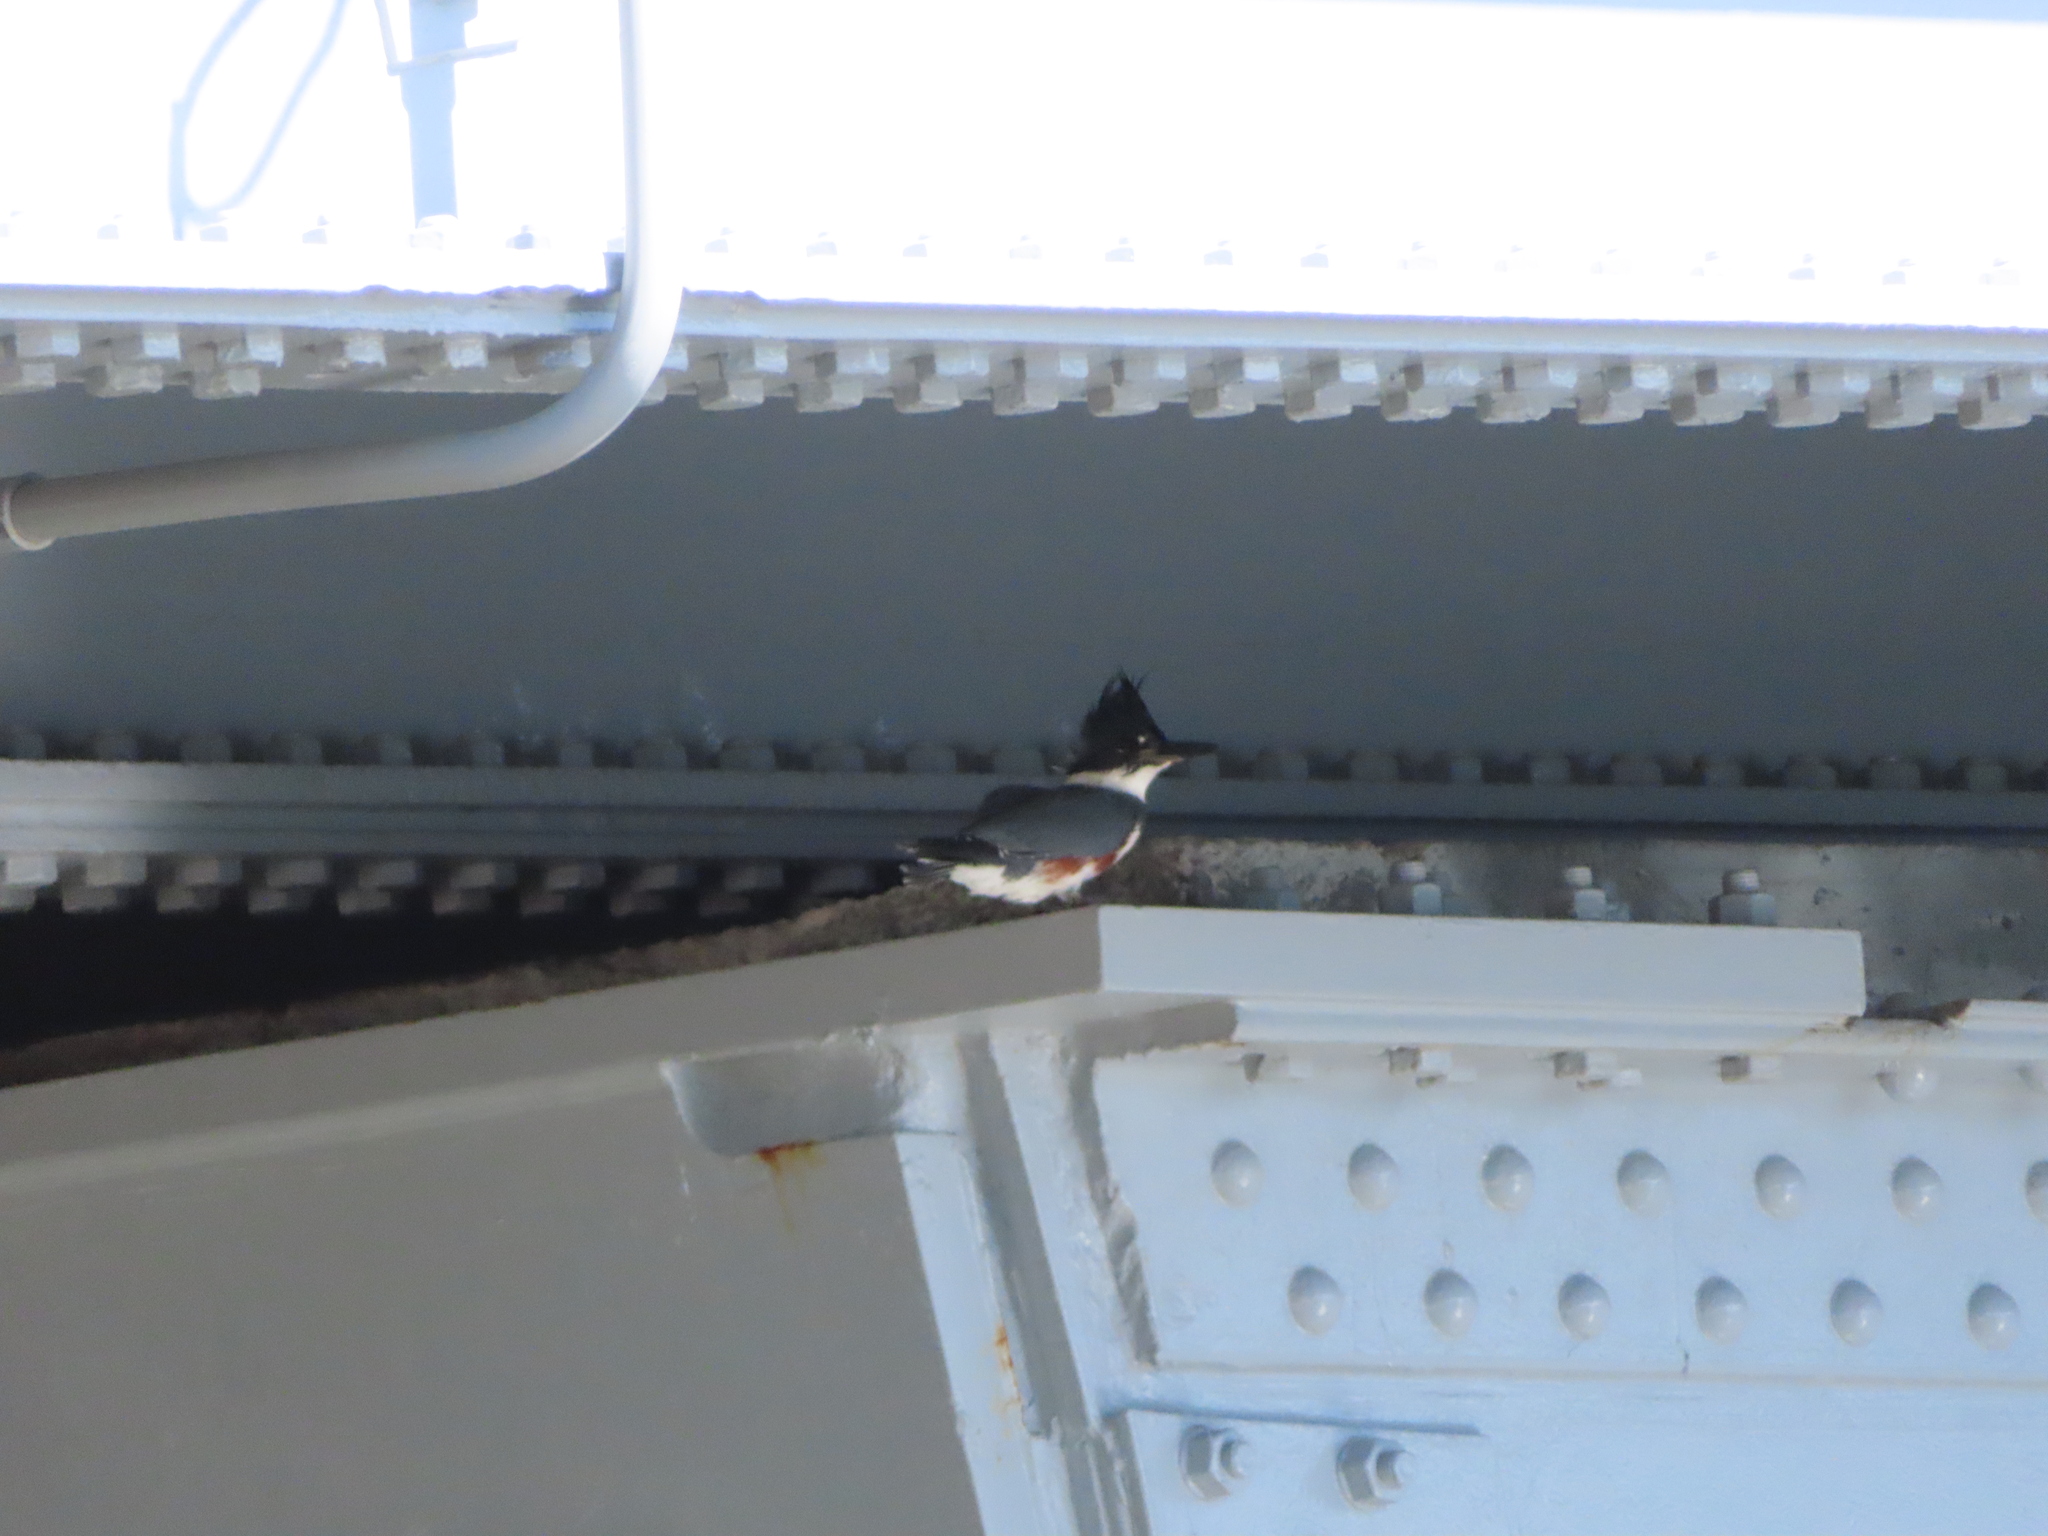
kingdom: Animalia
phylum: Chordata
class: Aves
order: Coraciiformes
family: Alcedinidae
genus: Megaceryle
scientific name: Megaceryle alcyon
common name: Belted kingfisher
